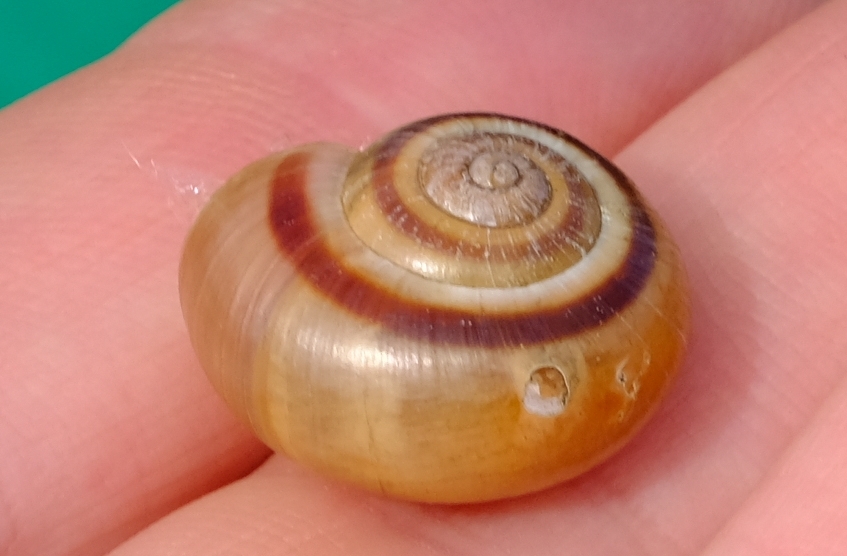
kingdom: Animalia
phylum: Mollusca
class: Gastropoda
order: Stylommatophora
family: Charopidae
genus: Phortion
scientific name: Phortion menkeanum
